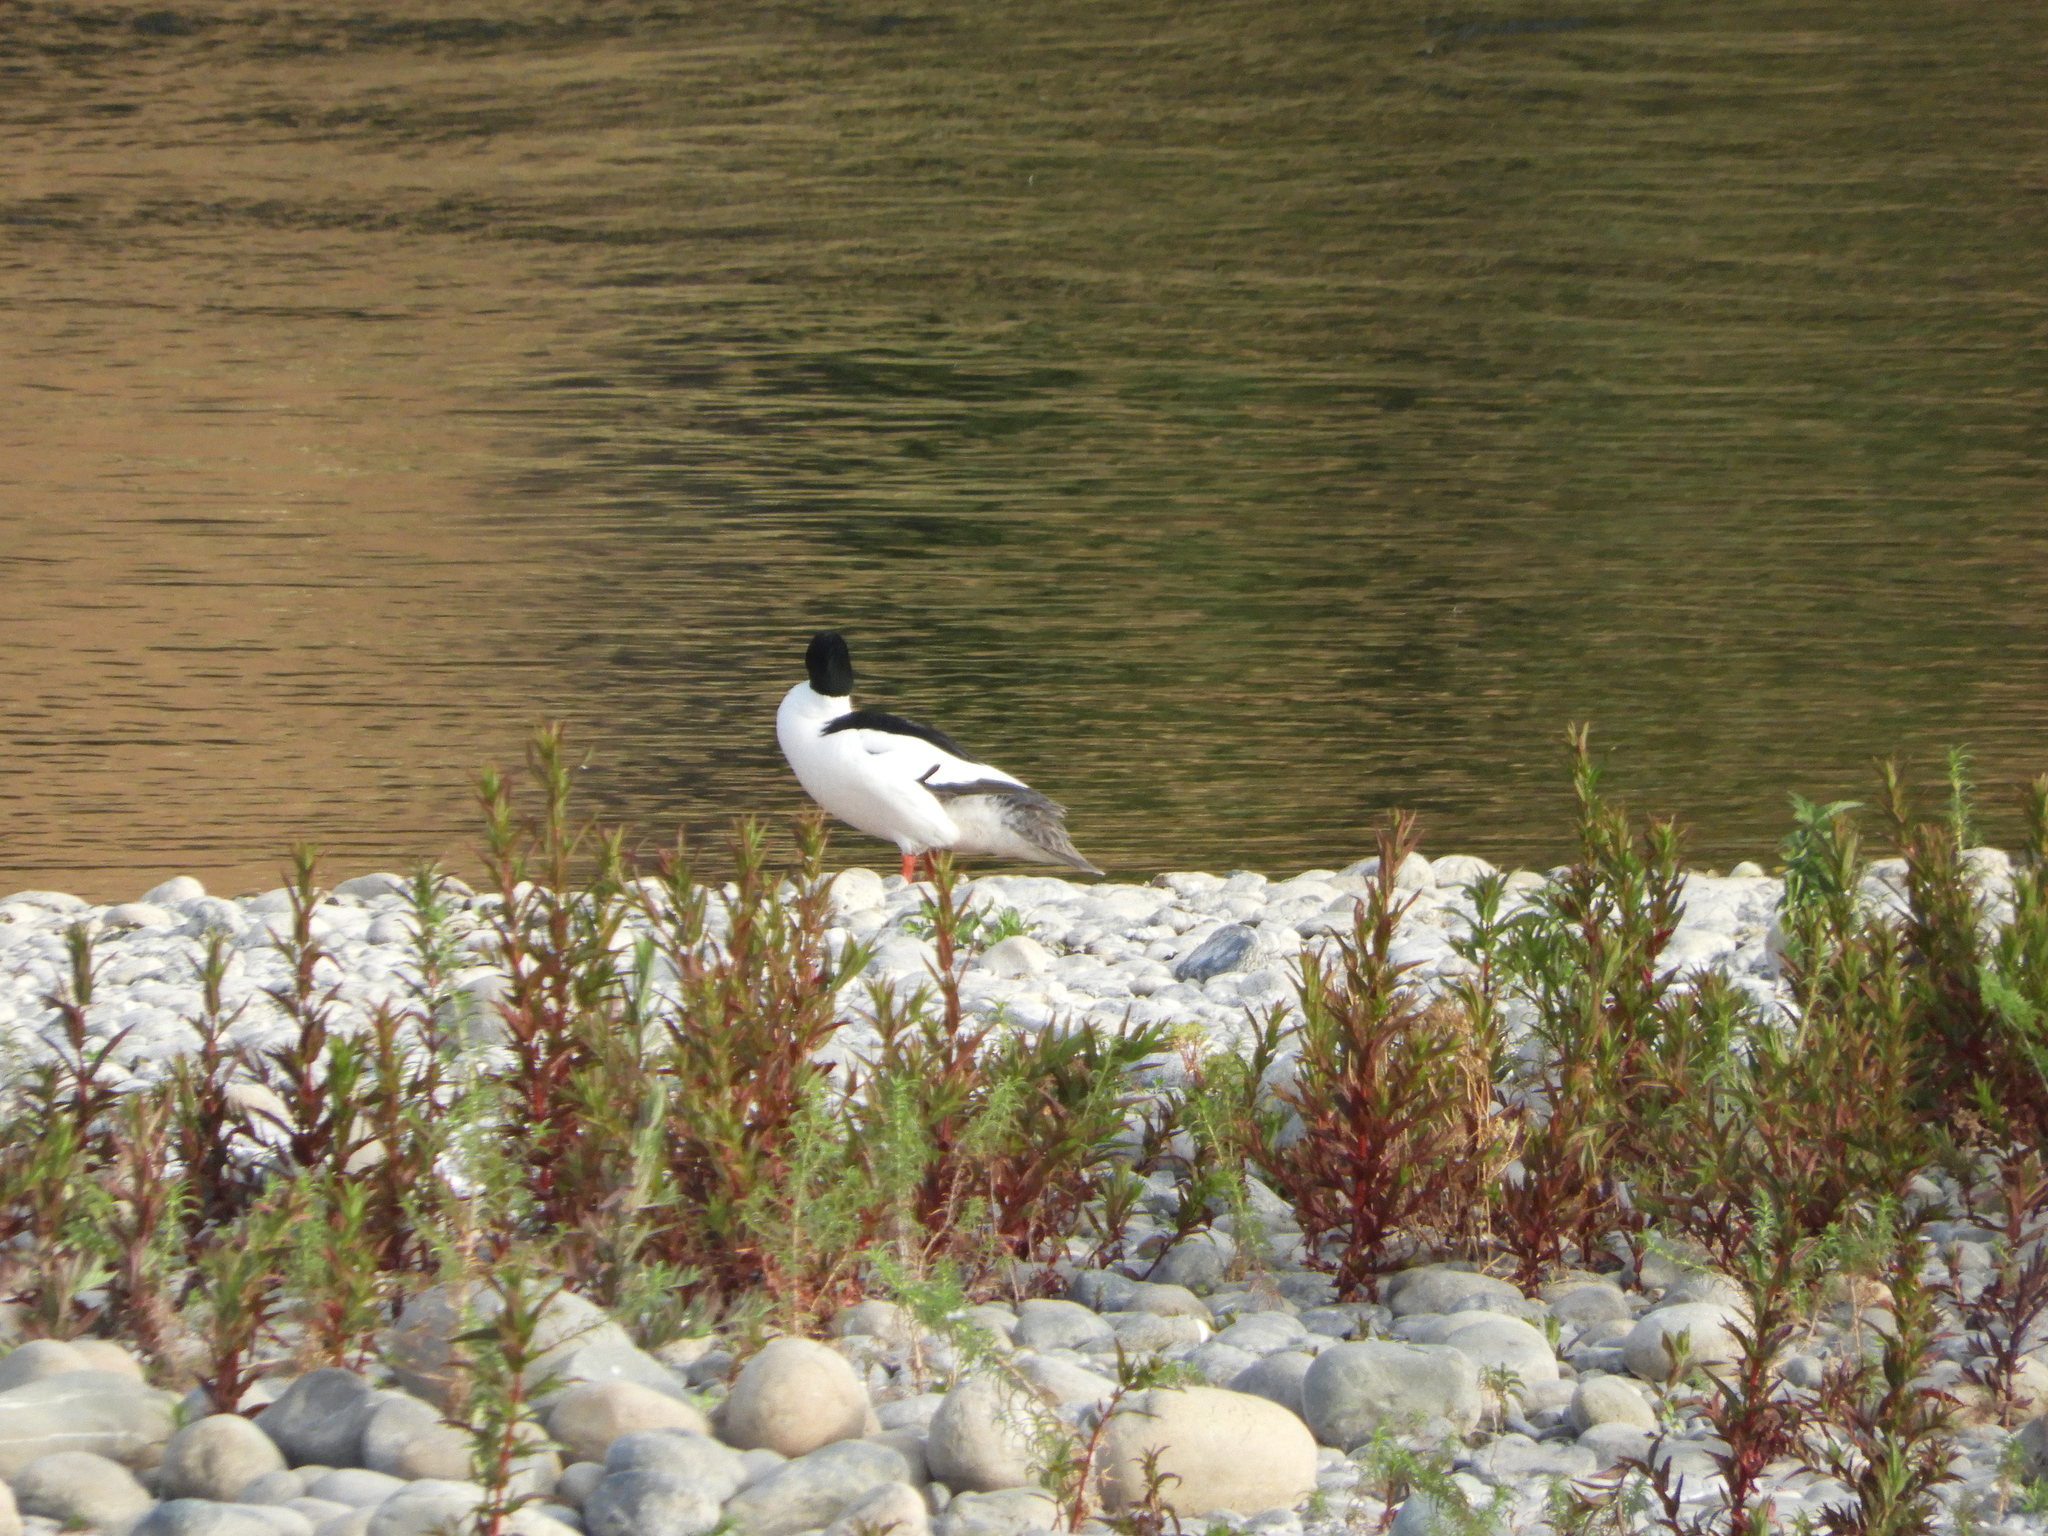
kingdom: Animalia
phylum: Chordata
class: Aves
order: Anseriformes
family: Anatidae
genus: Mergus
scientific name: Mergus merganser
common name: Common merganser
